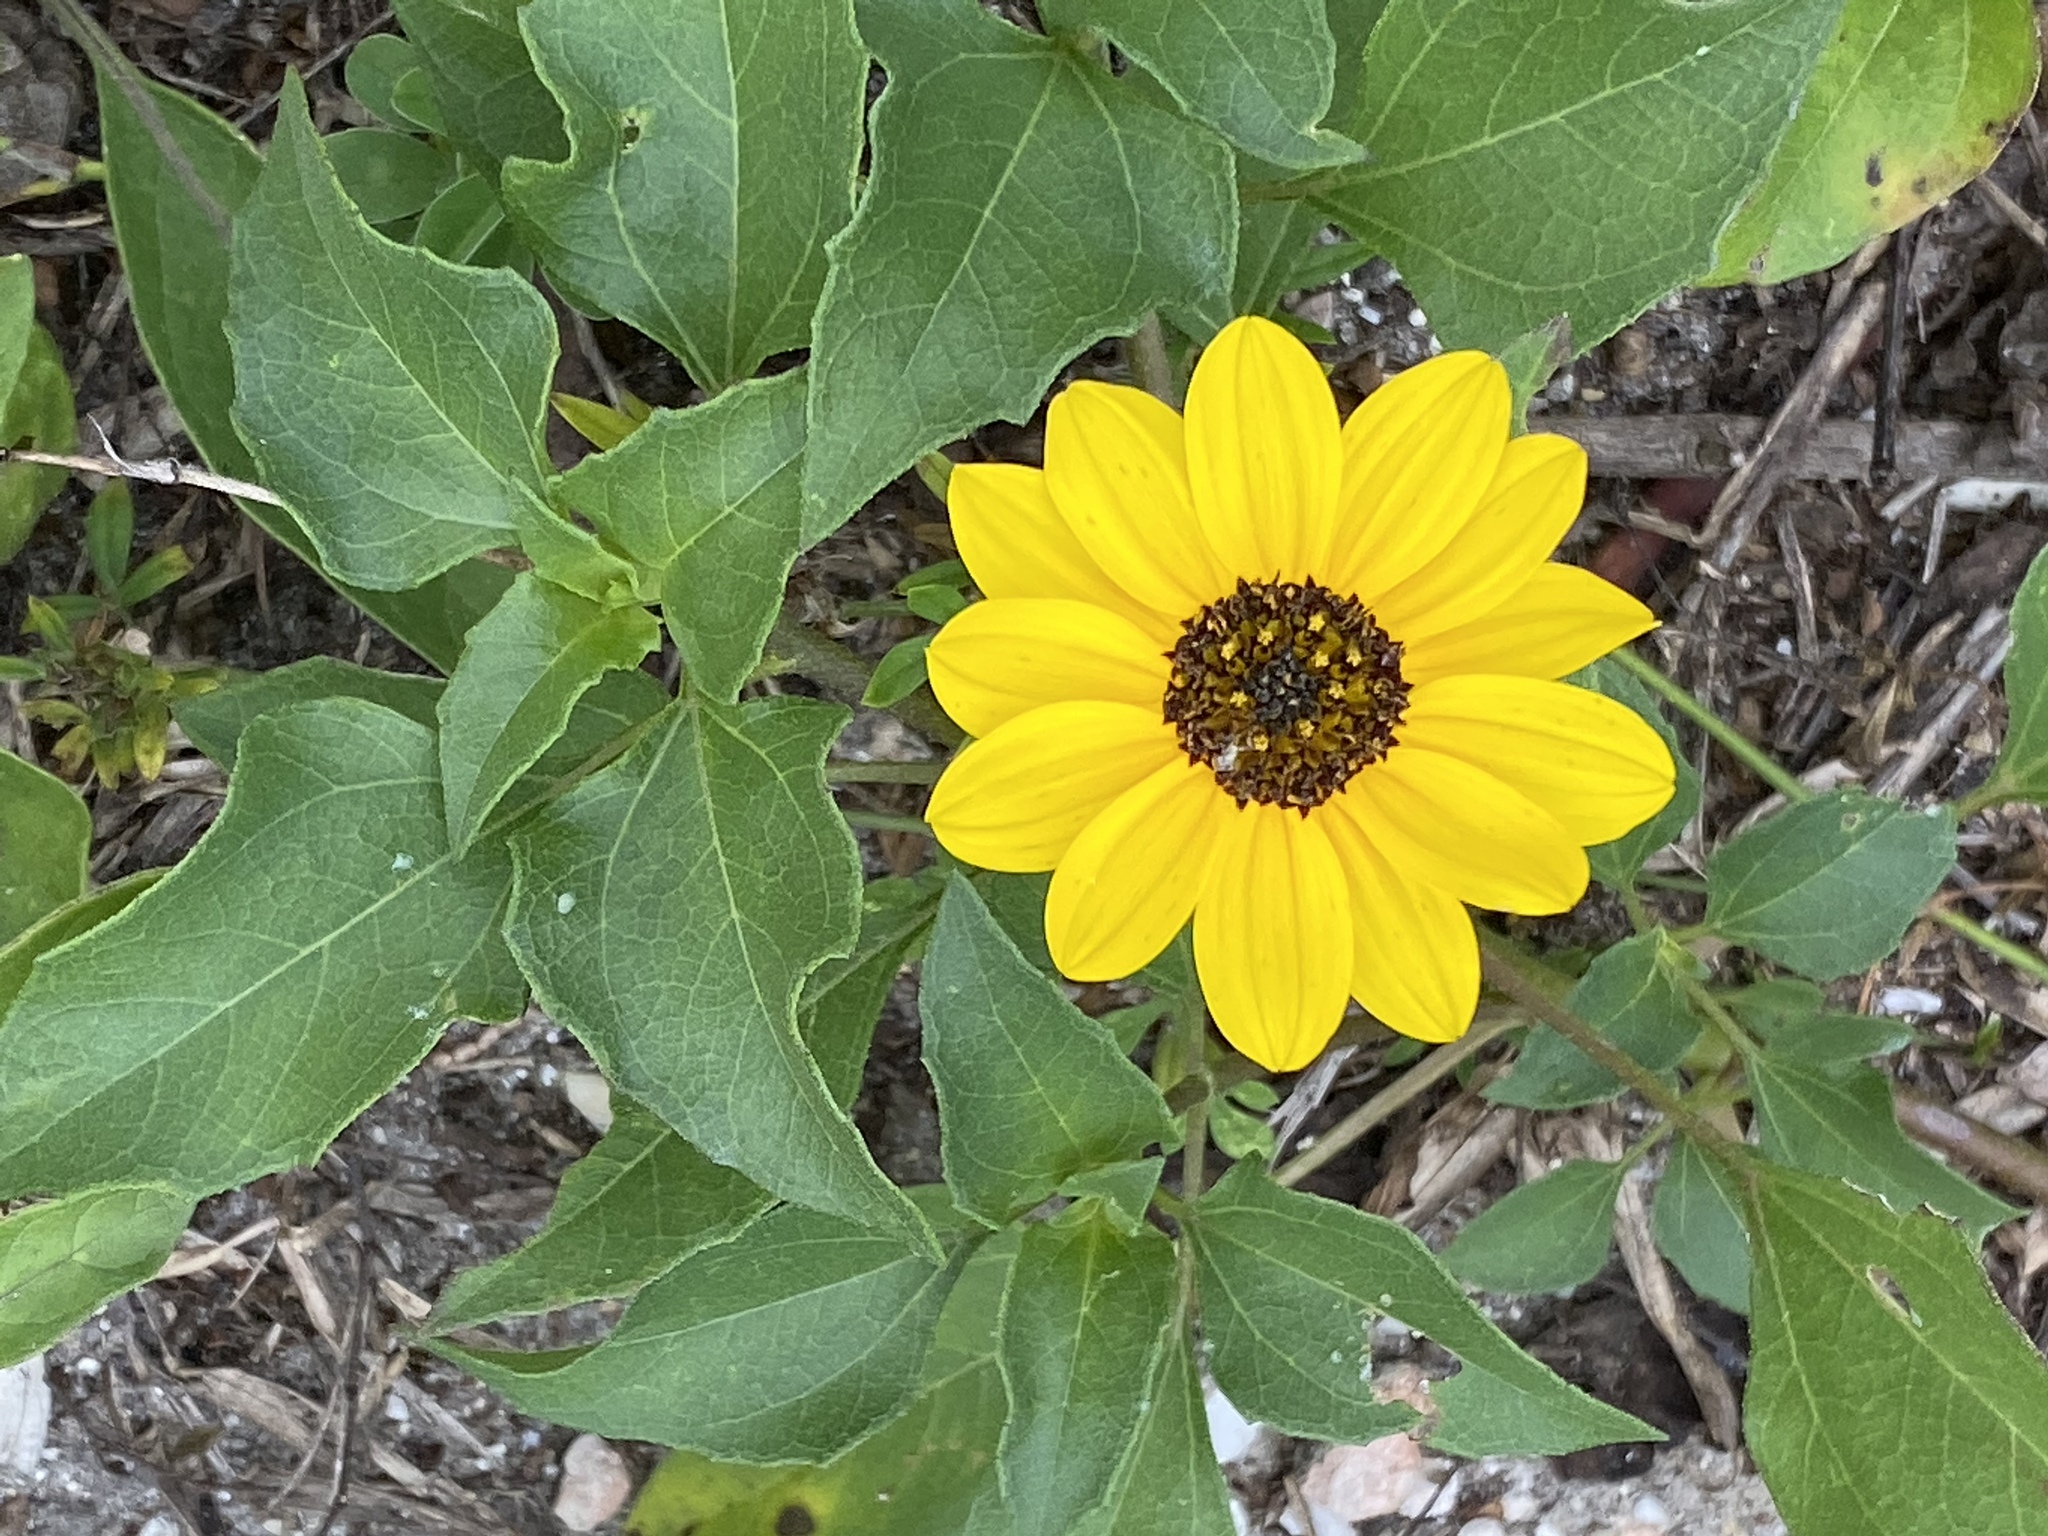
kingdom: Plantae
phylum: Tracheophyta
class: Magnoliopsida
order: Asterales
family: Asteraceae
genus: Helianthus
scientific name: Helianthus debilis
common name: Weak sunflower
